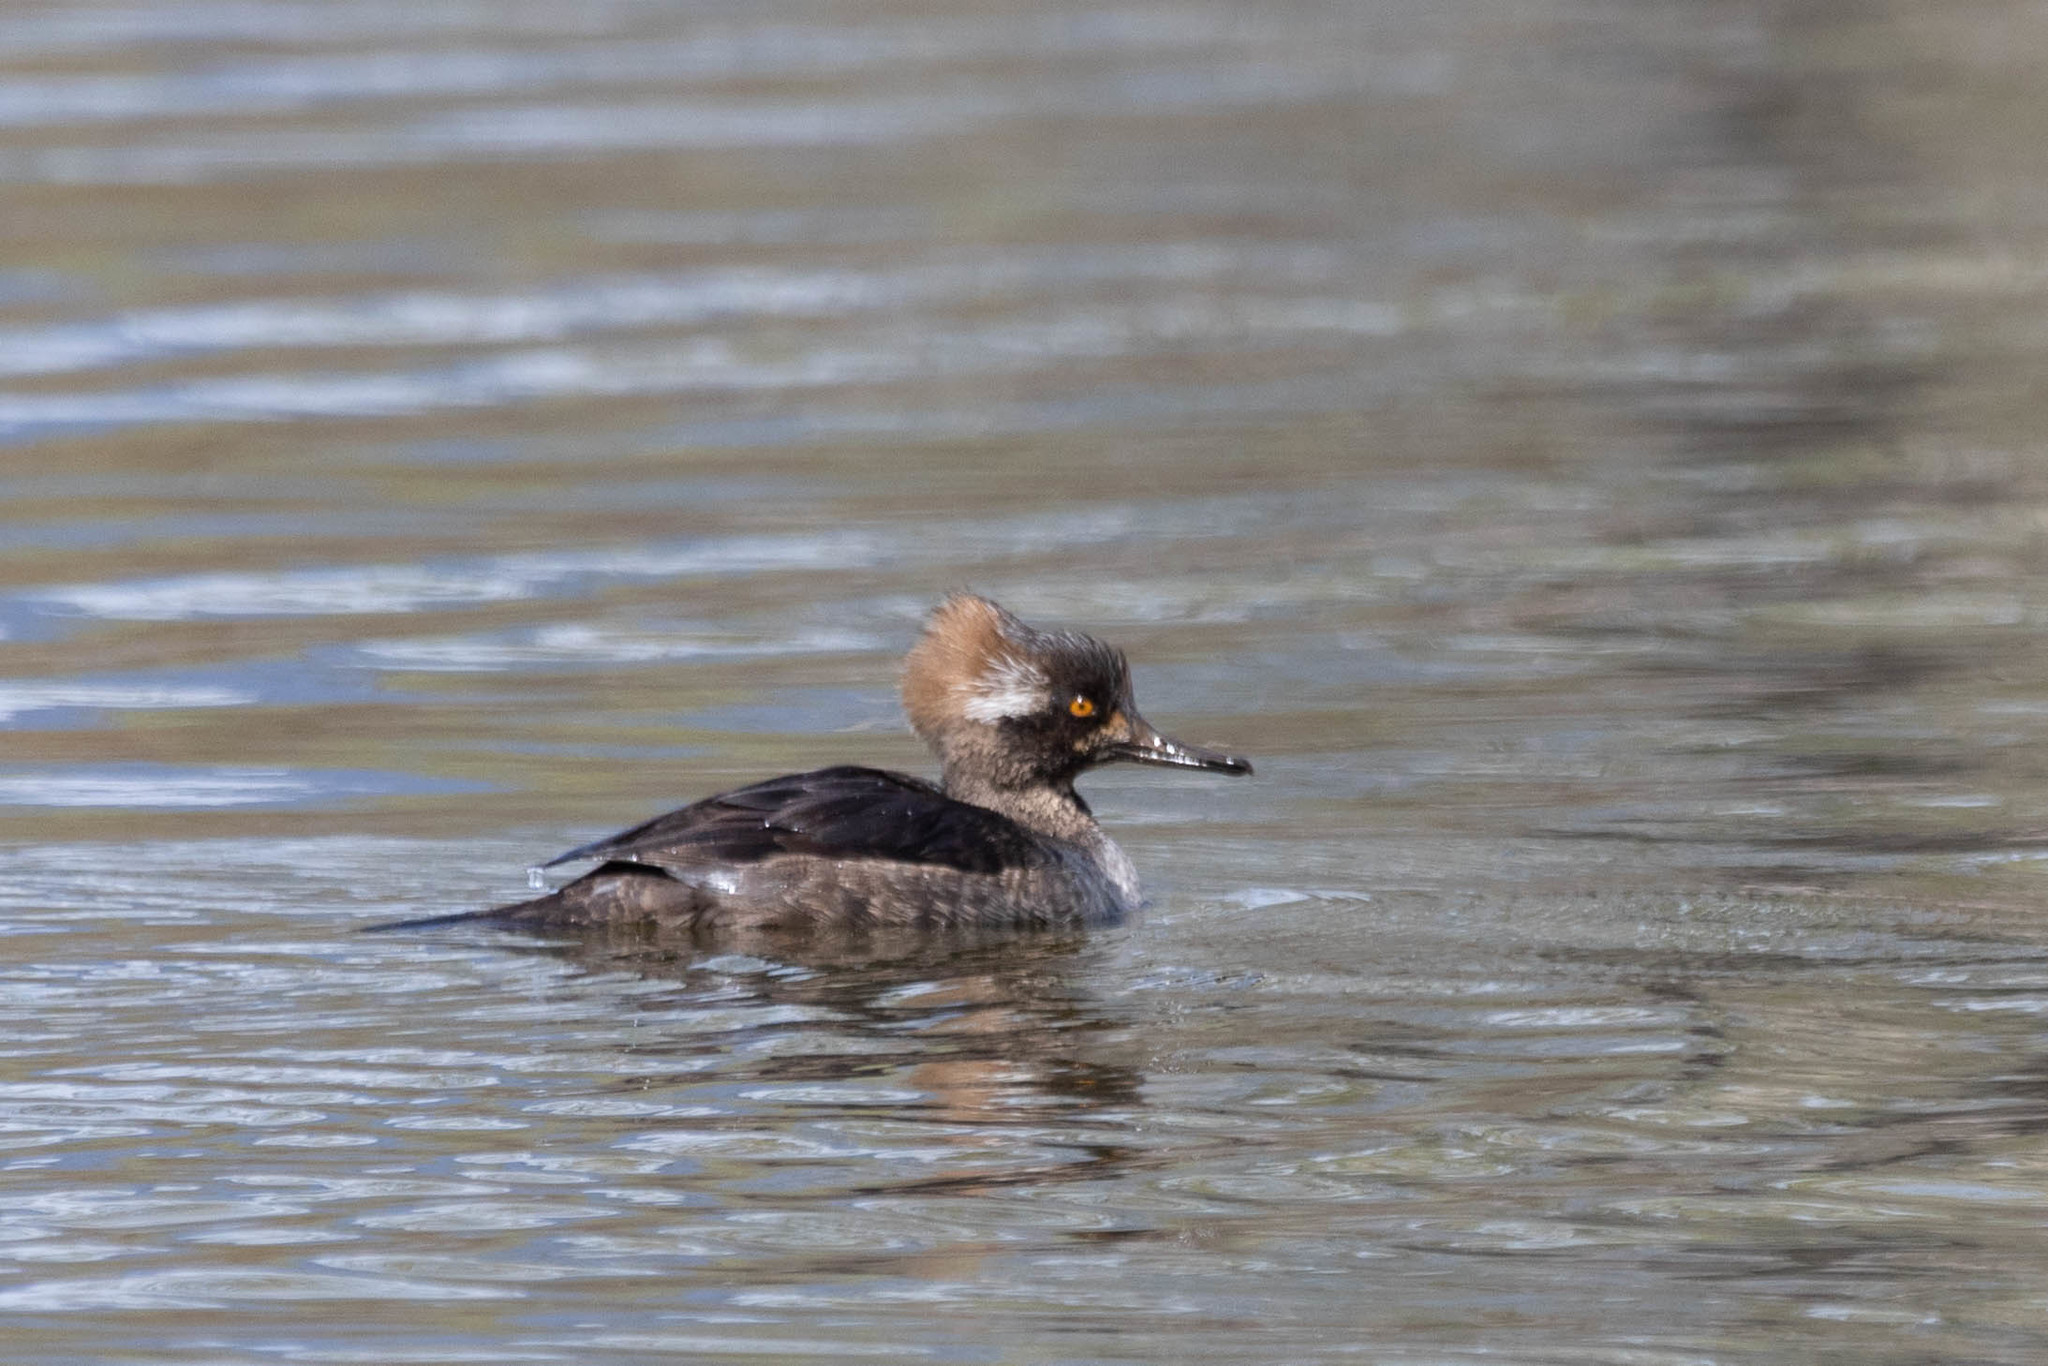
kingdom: Animalia
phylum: Chordata
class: Aves
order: Anseriformes
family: Anatidae
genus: Lophodytes
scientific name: Lophodytes cucullatus
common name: Hooded merganser
